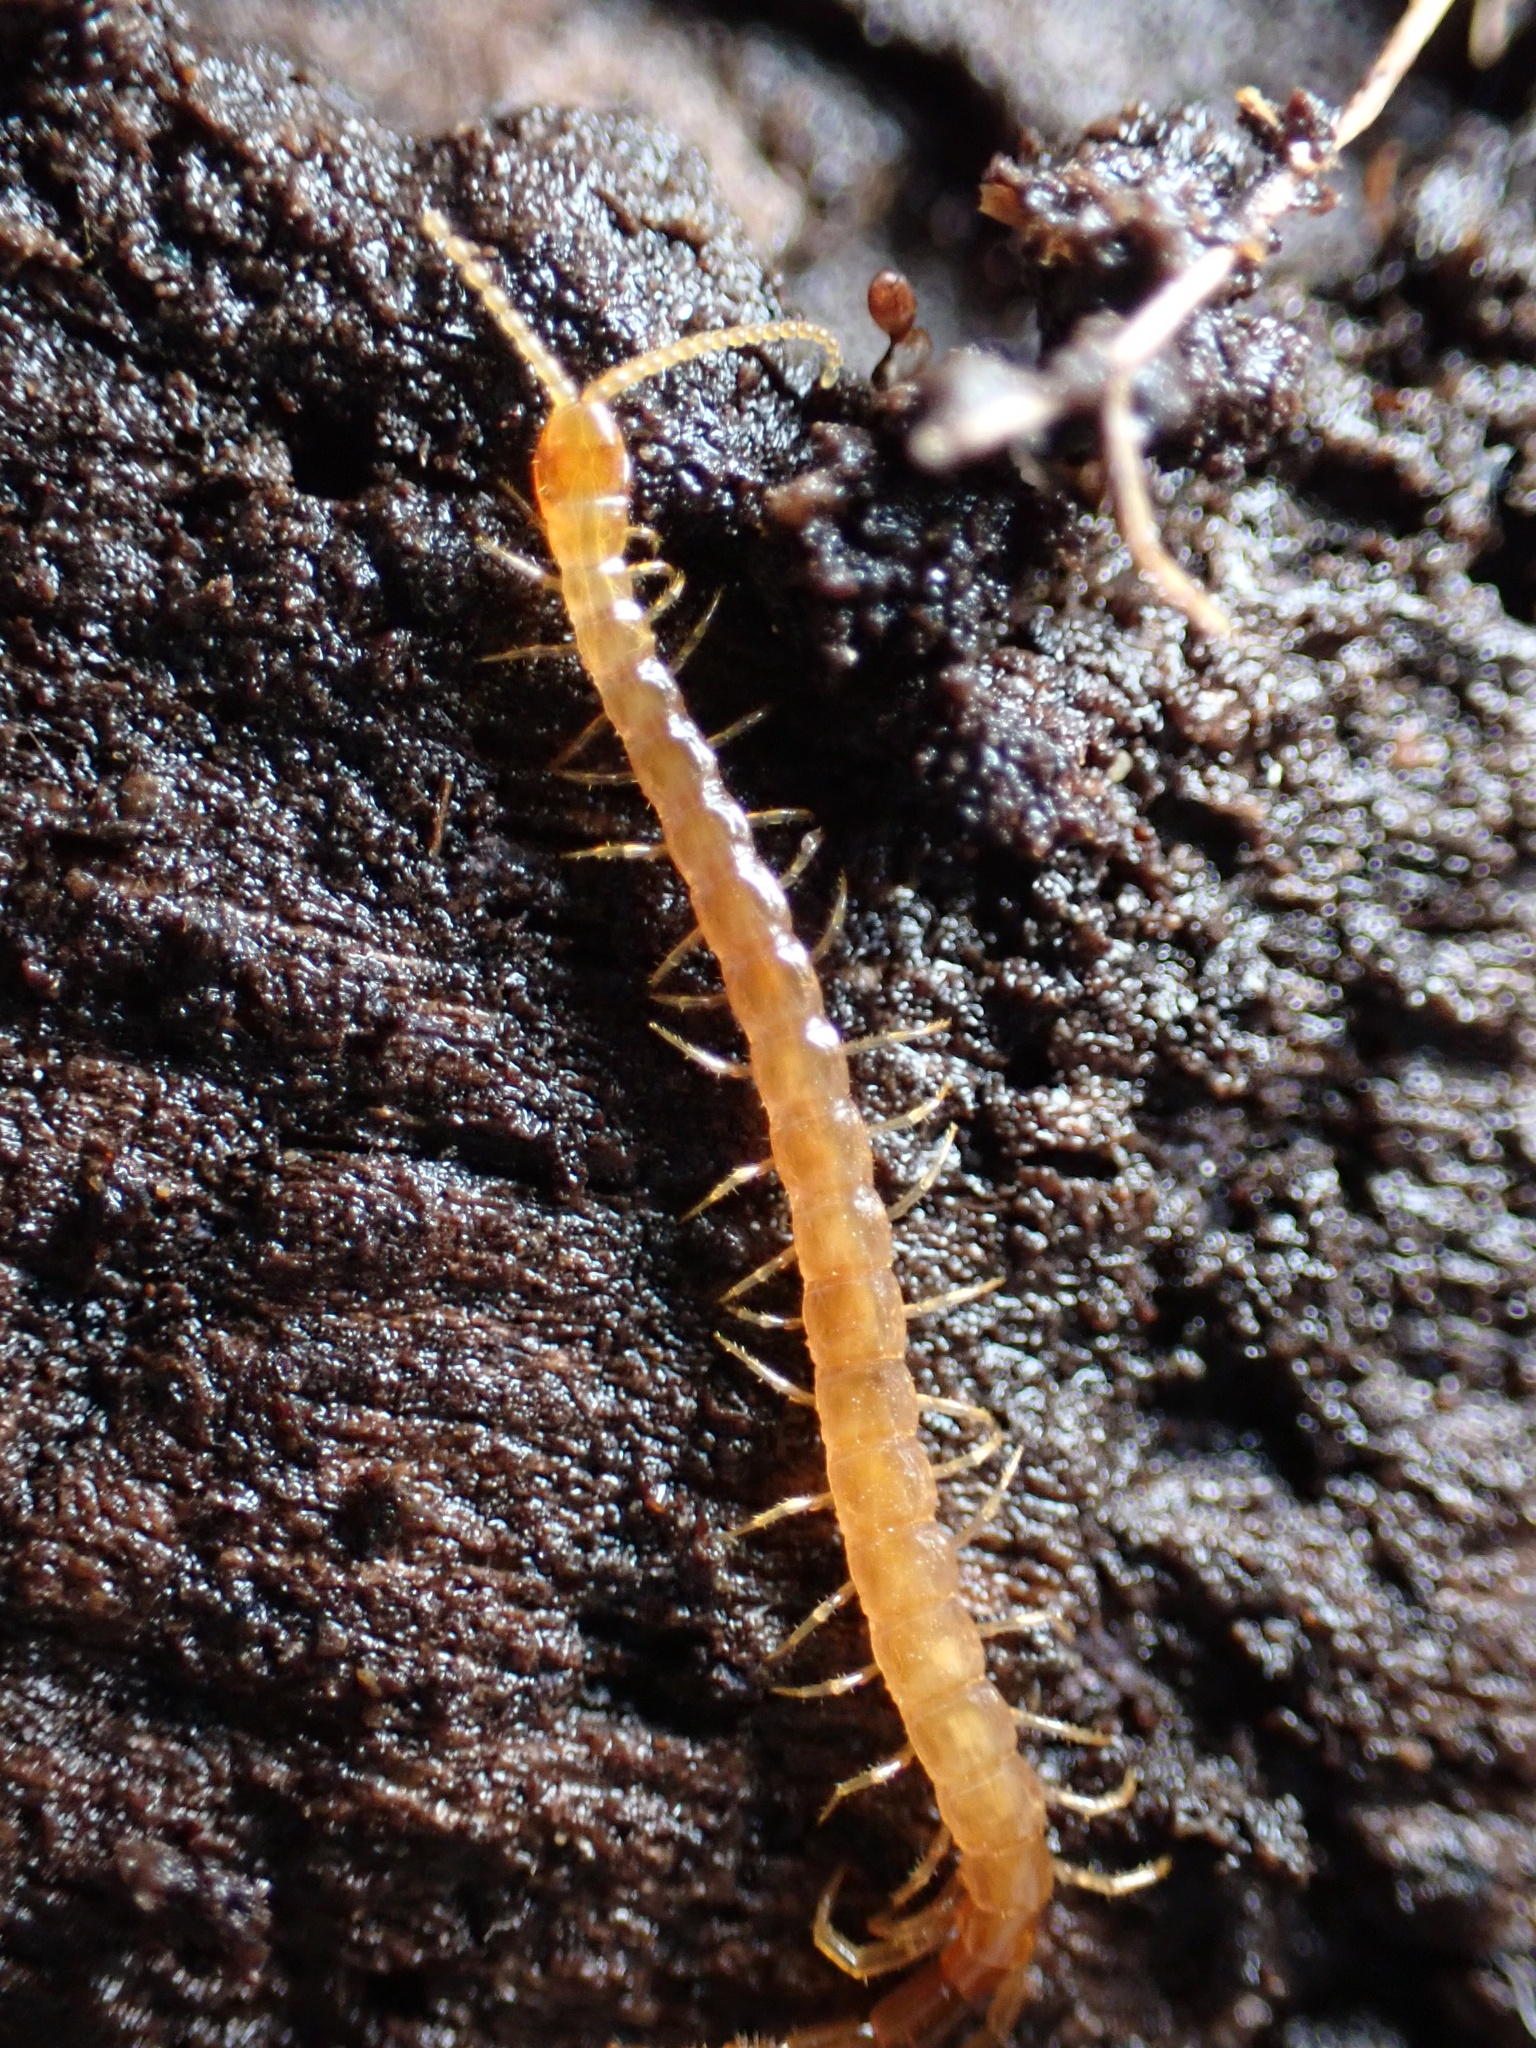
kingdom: Animalia
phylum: Arthropoda
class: Chilopoda
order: Scolopendromorpha
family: Cryptopidae
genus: Cryptops
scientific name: Cryptops hortensis
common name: Centipede
